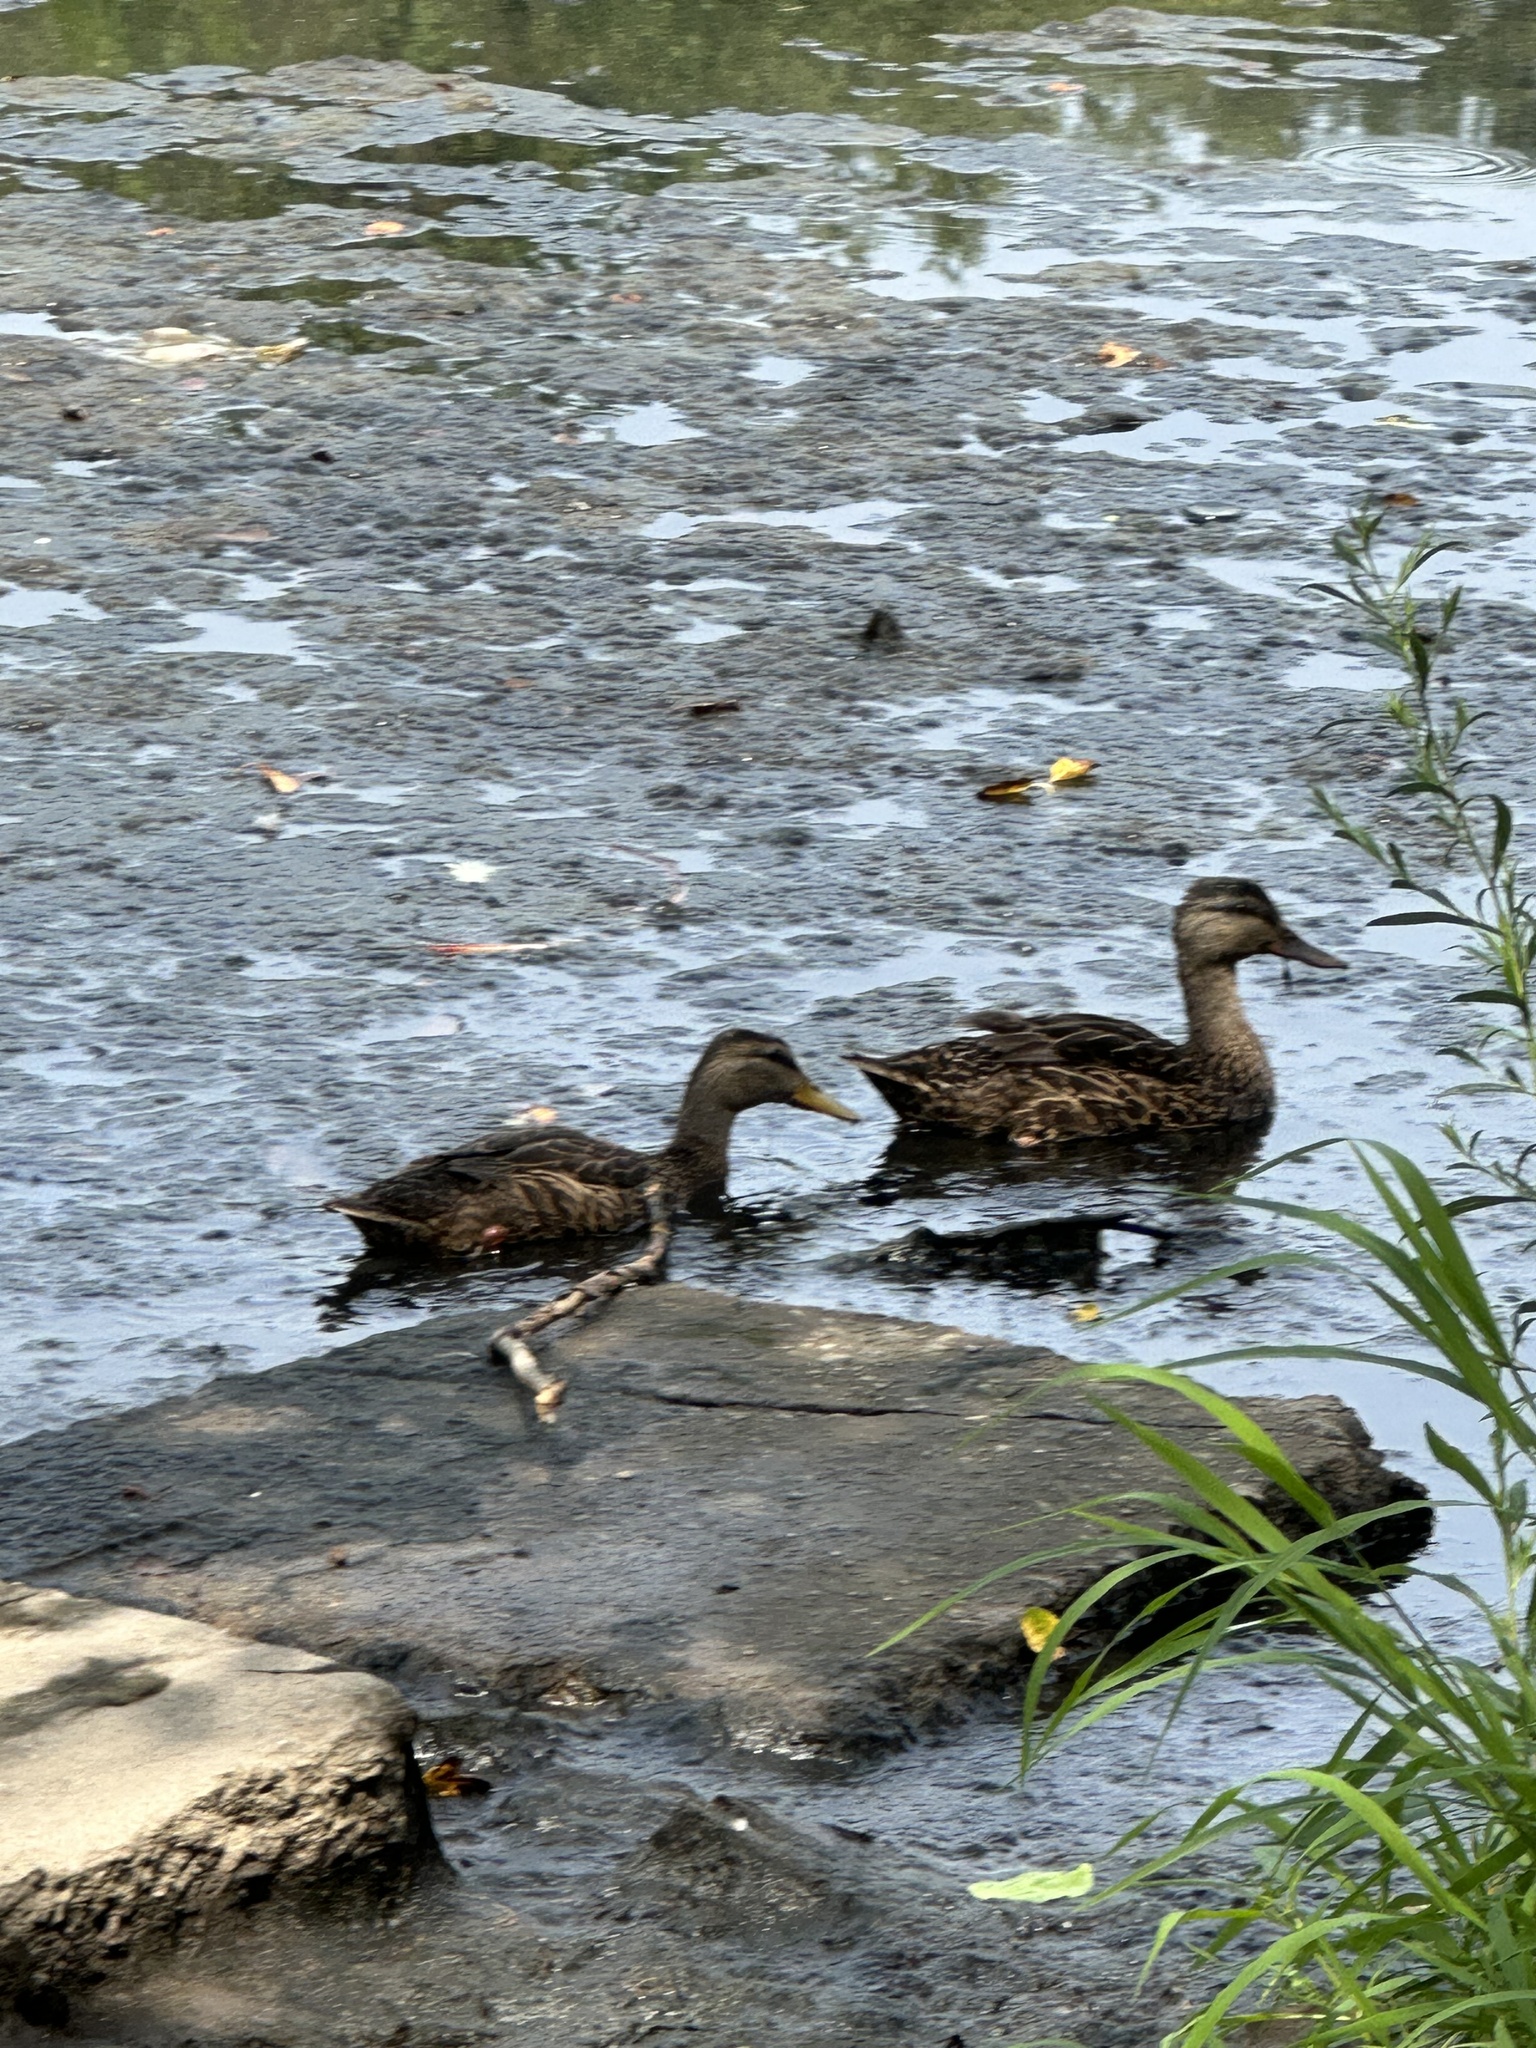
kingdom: Animalia
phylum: Chordata
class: Aves
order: Anseriformes
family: Anatidae
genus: Anas
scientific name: Anas platyrhynchos
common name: Mallard
